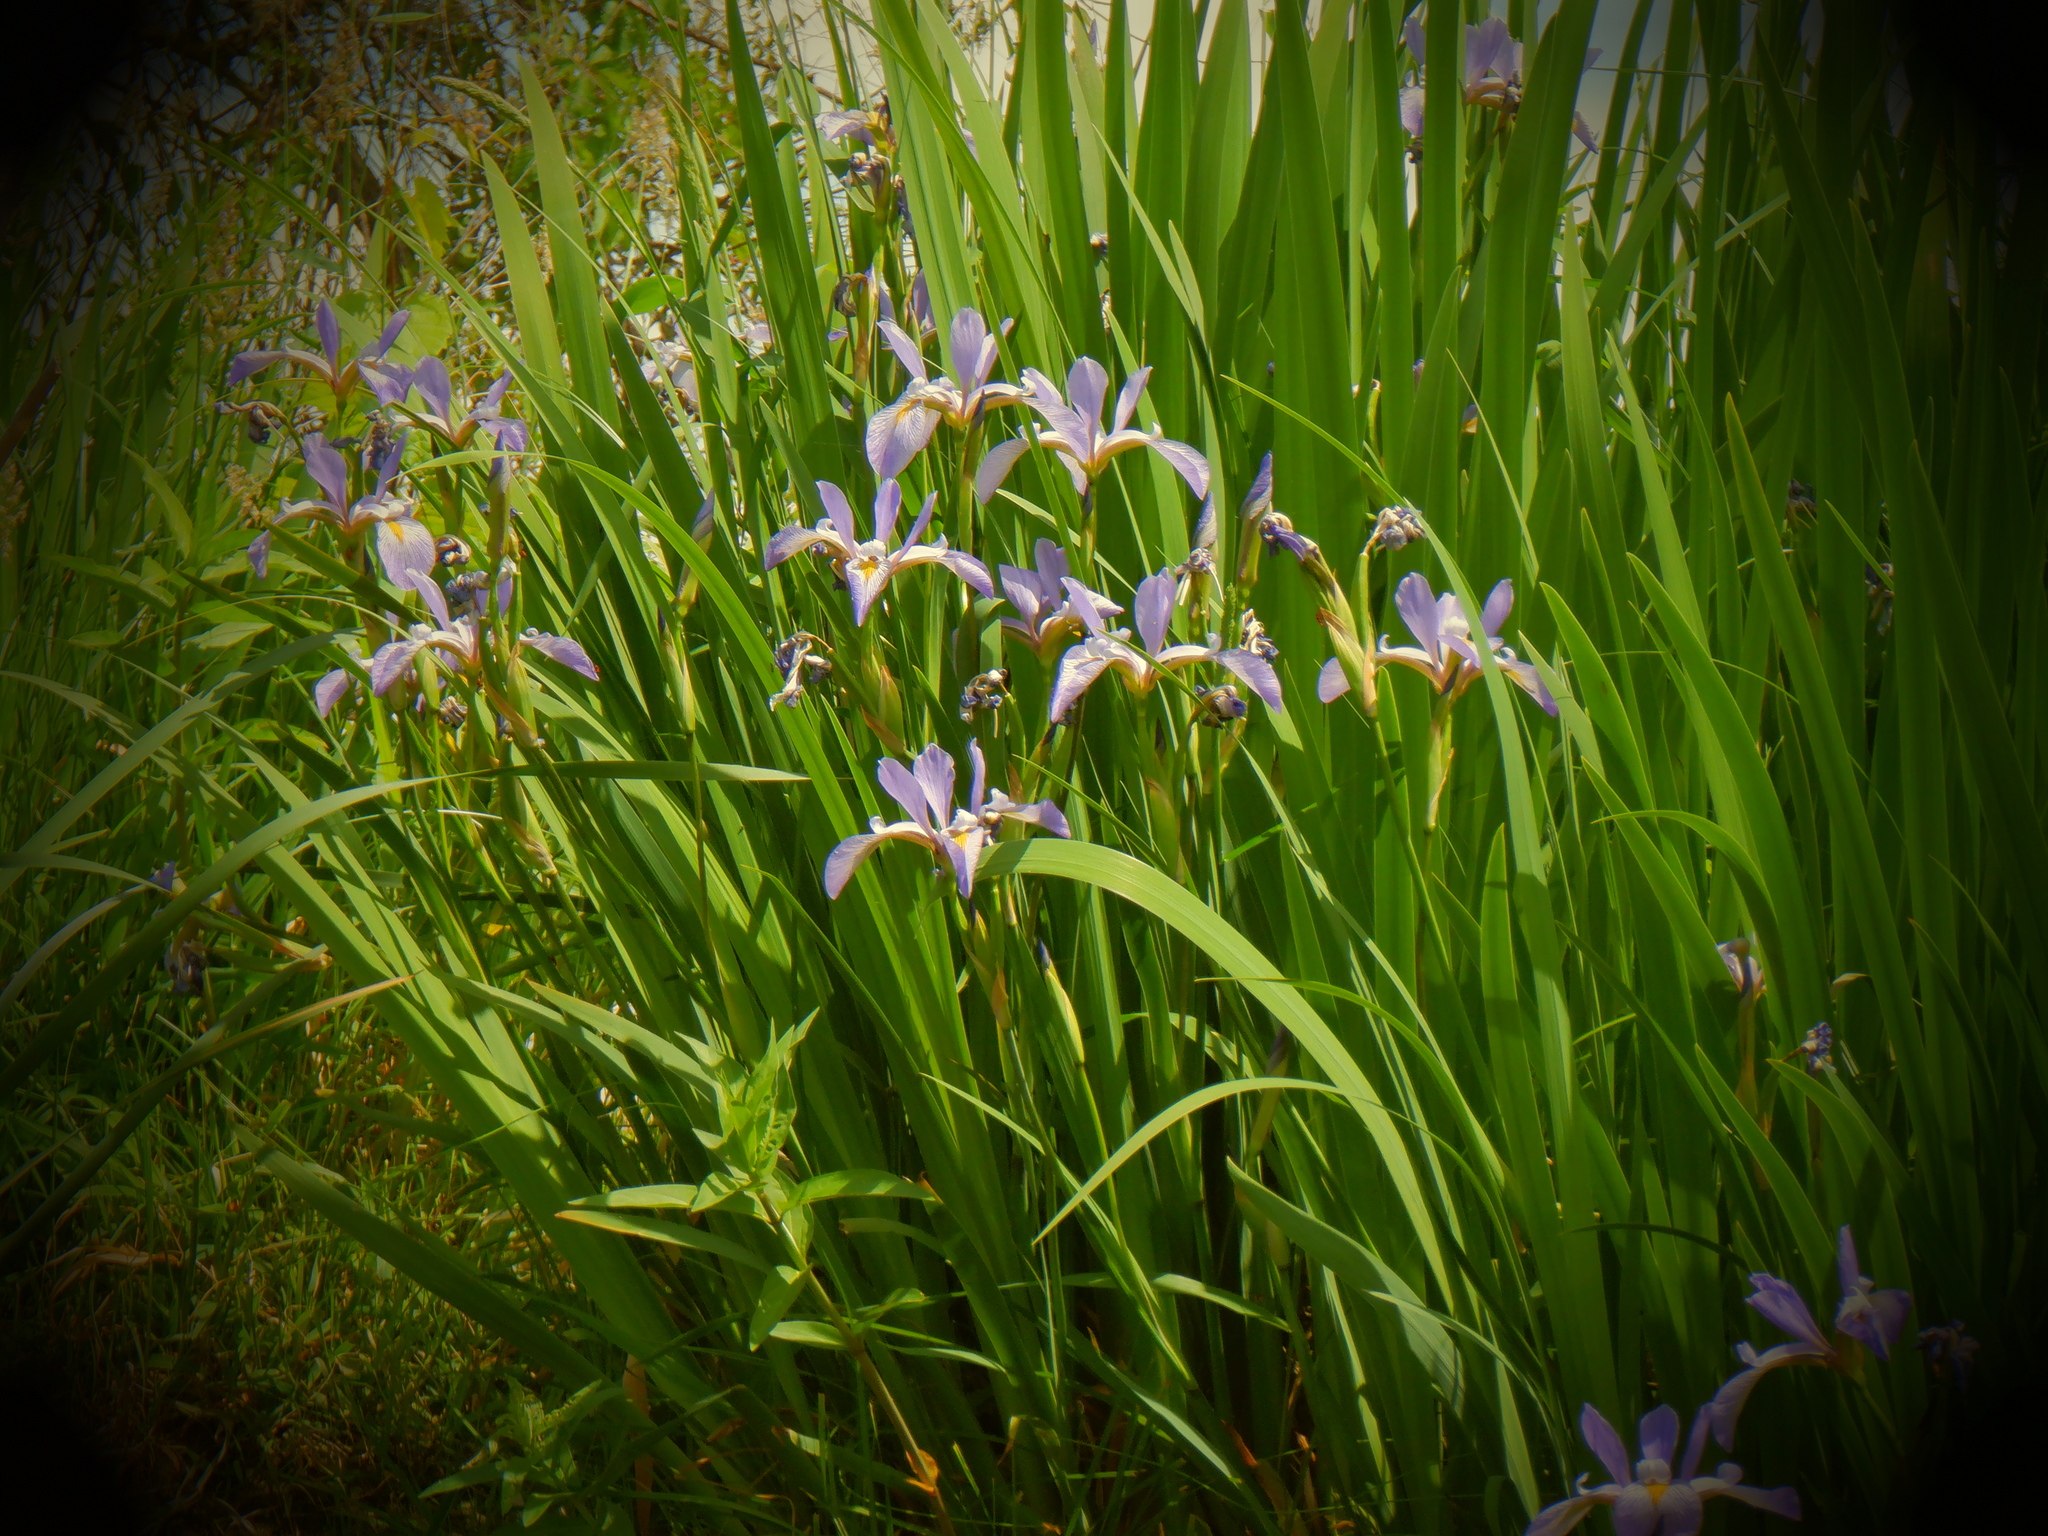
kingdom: Plantae
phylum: Tracheophyta
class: Liliopsida
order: Asparagales
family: Iridaceae
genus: Iris
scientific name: Iris virginica
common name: Southern blue flag
